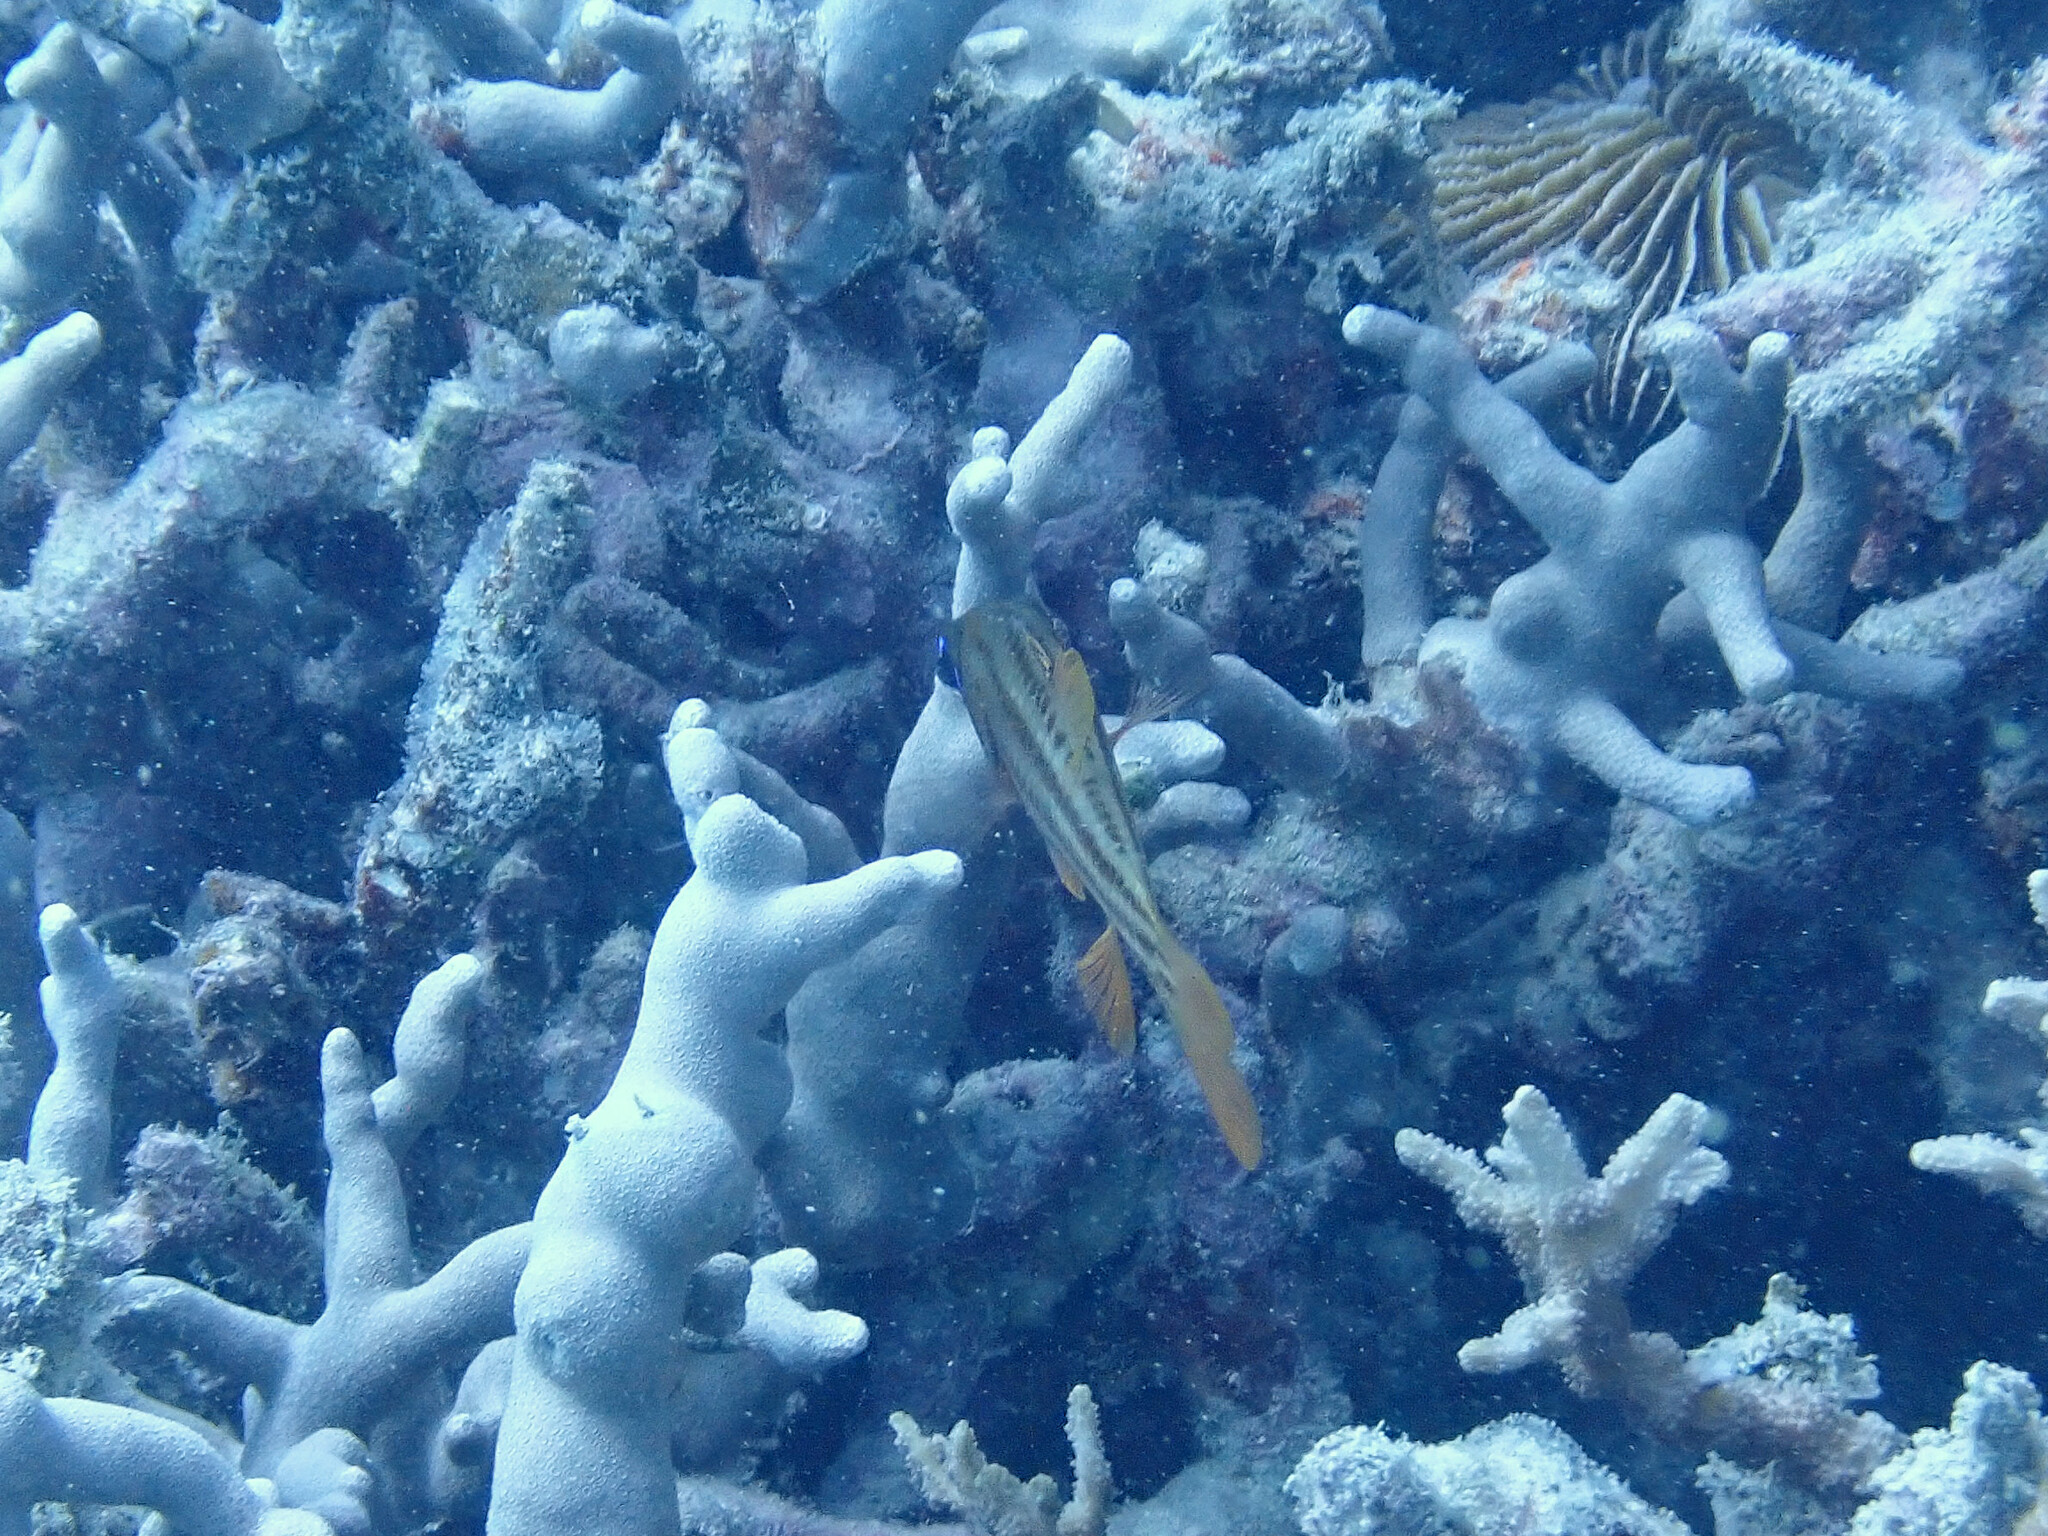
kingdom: Animalia
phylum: Chordata
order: Perciformes
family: Apogonidae
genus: Ostorhinchus
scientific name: Ostorhinchus compressus
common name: Ochre-striped cardinalfish
